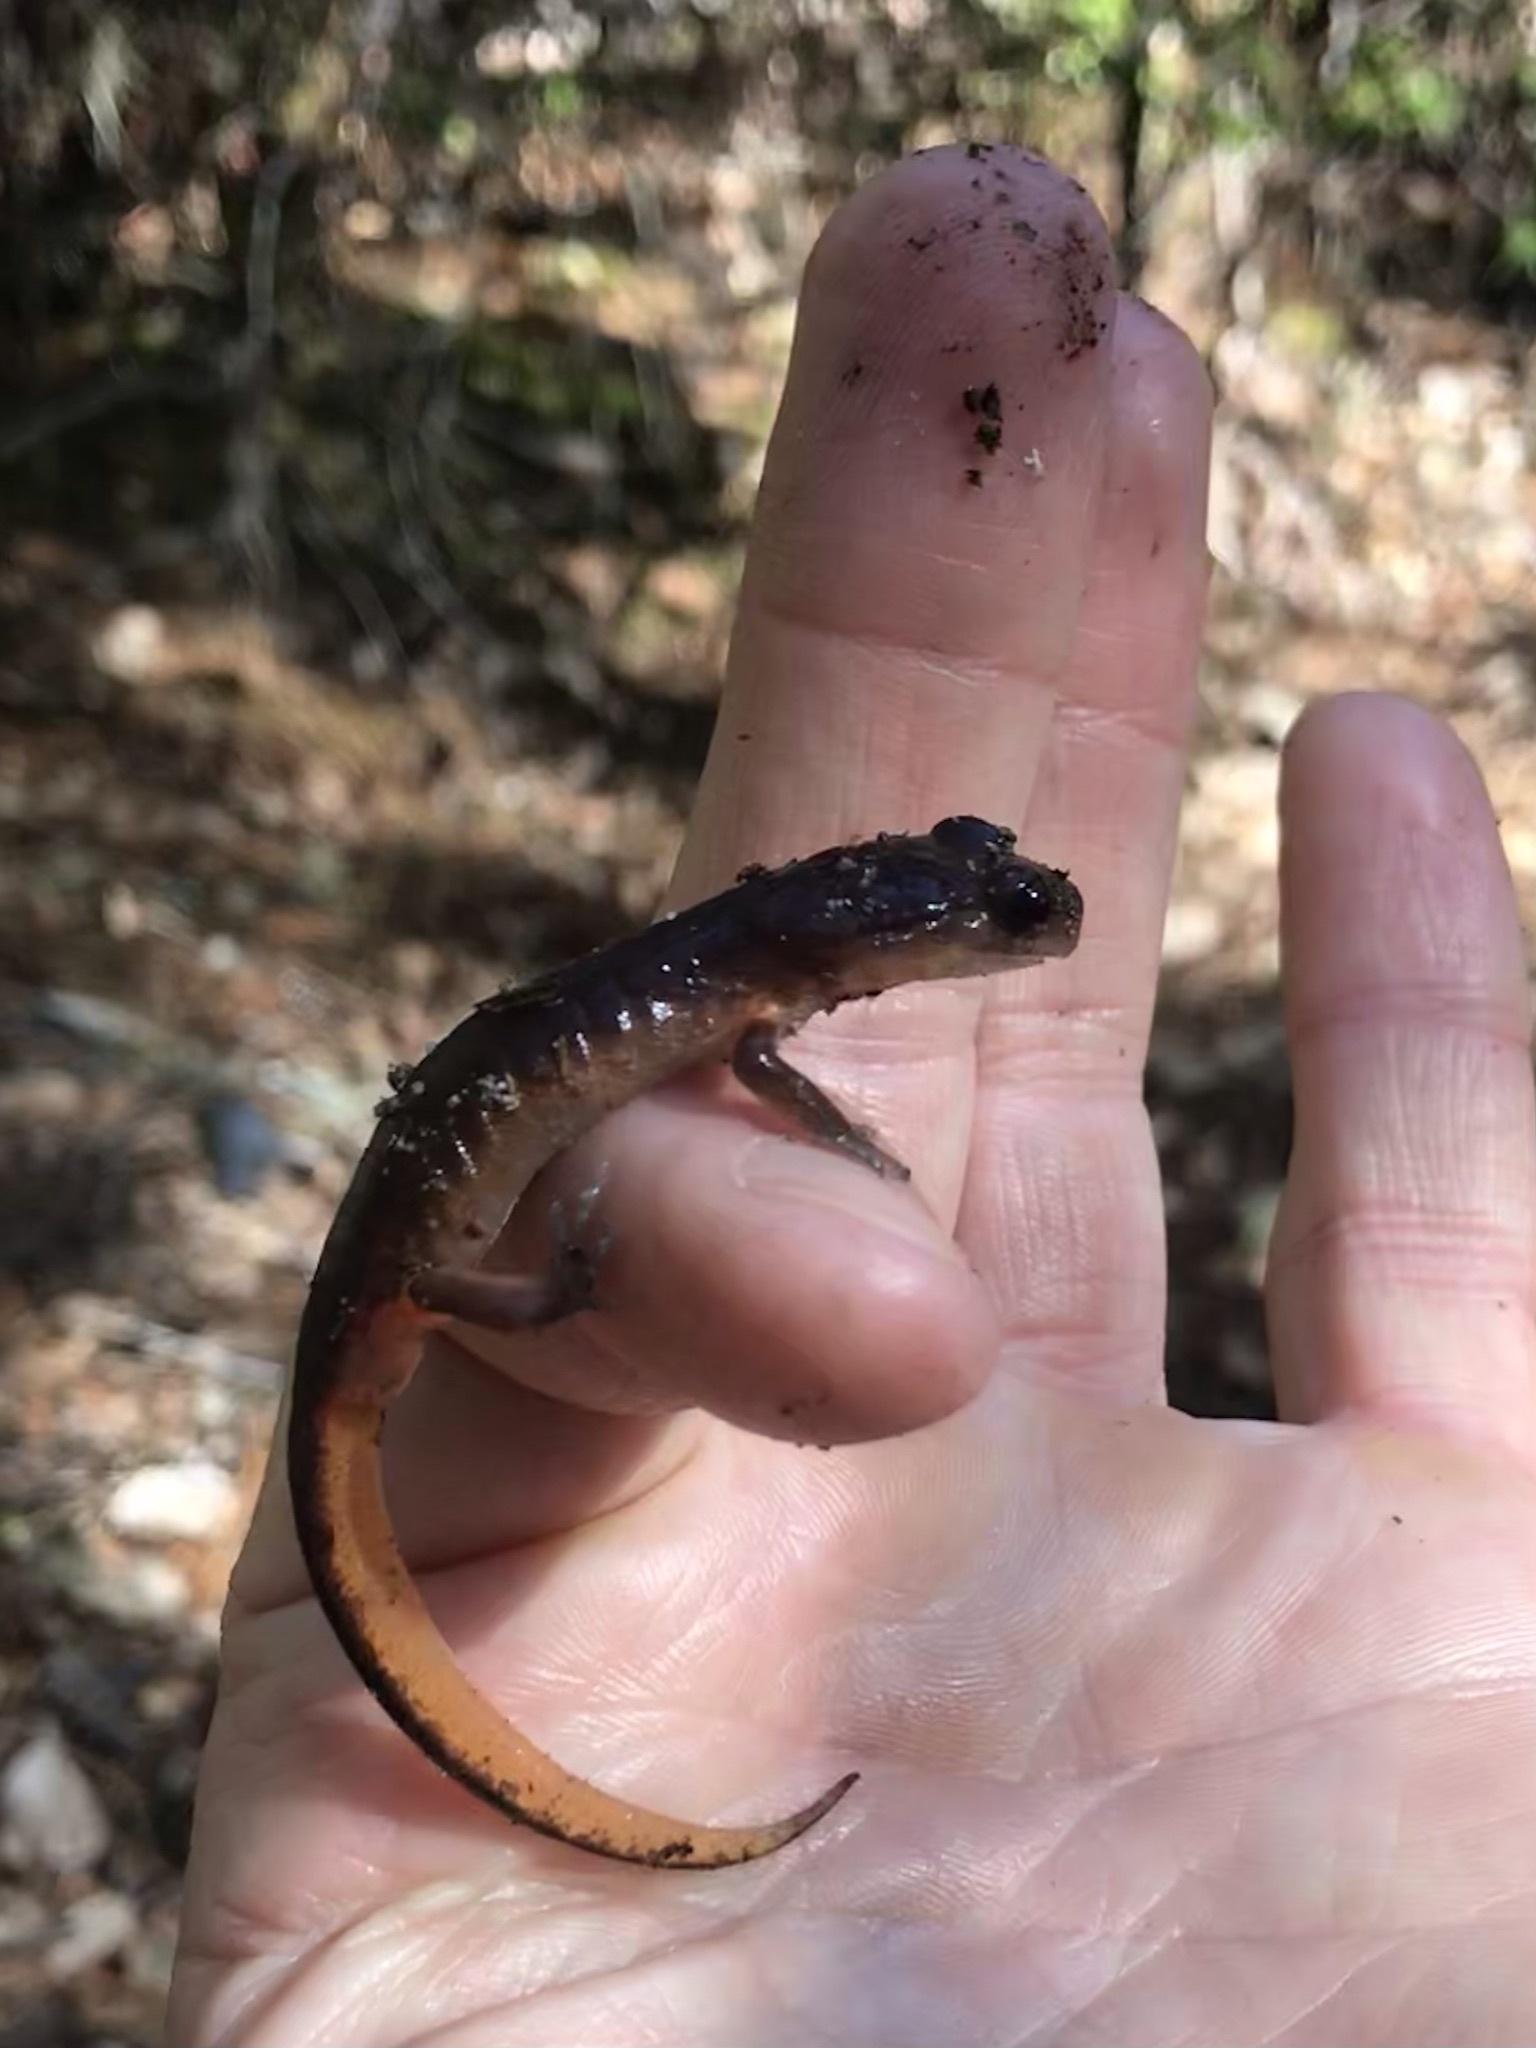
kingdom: Animalia
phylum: Chordata
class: Amphibia
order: Caudata
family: Plethodontidae
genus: Ensatina
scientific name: Ensatina eschscholtzii
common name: Ensatina
